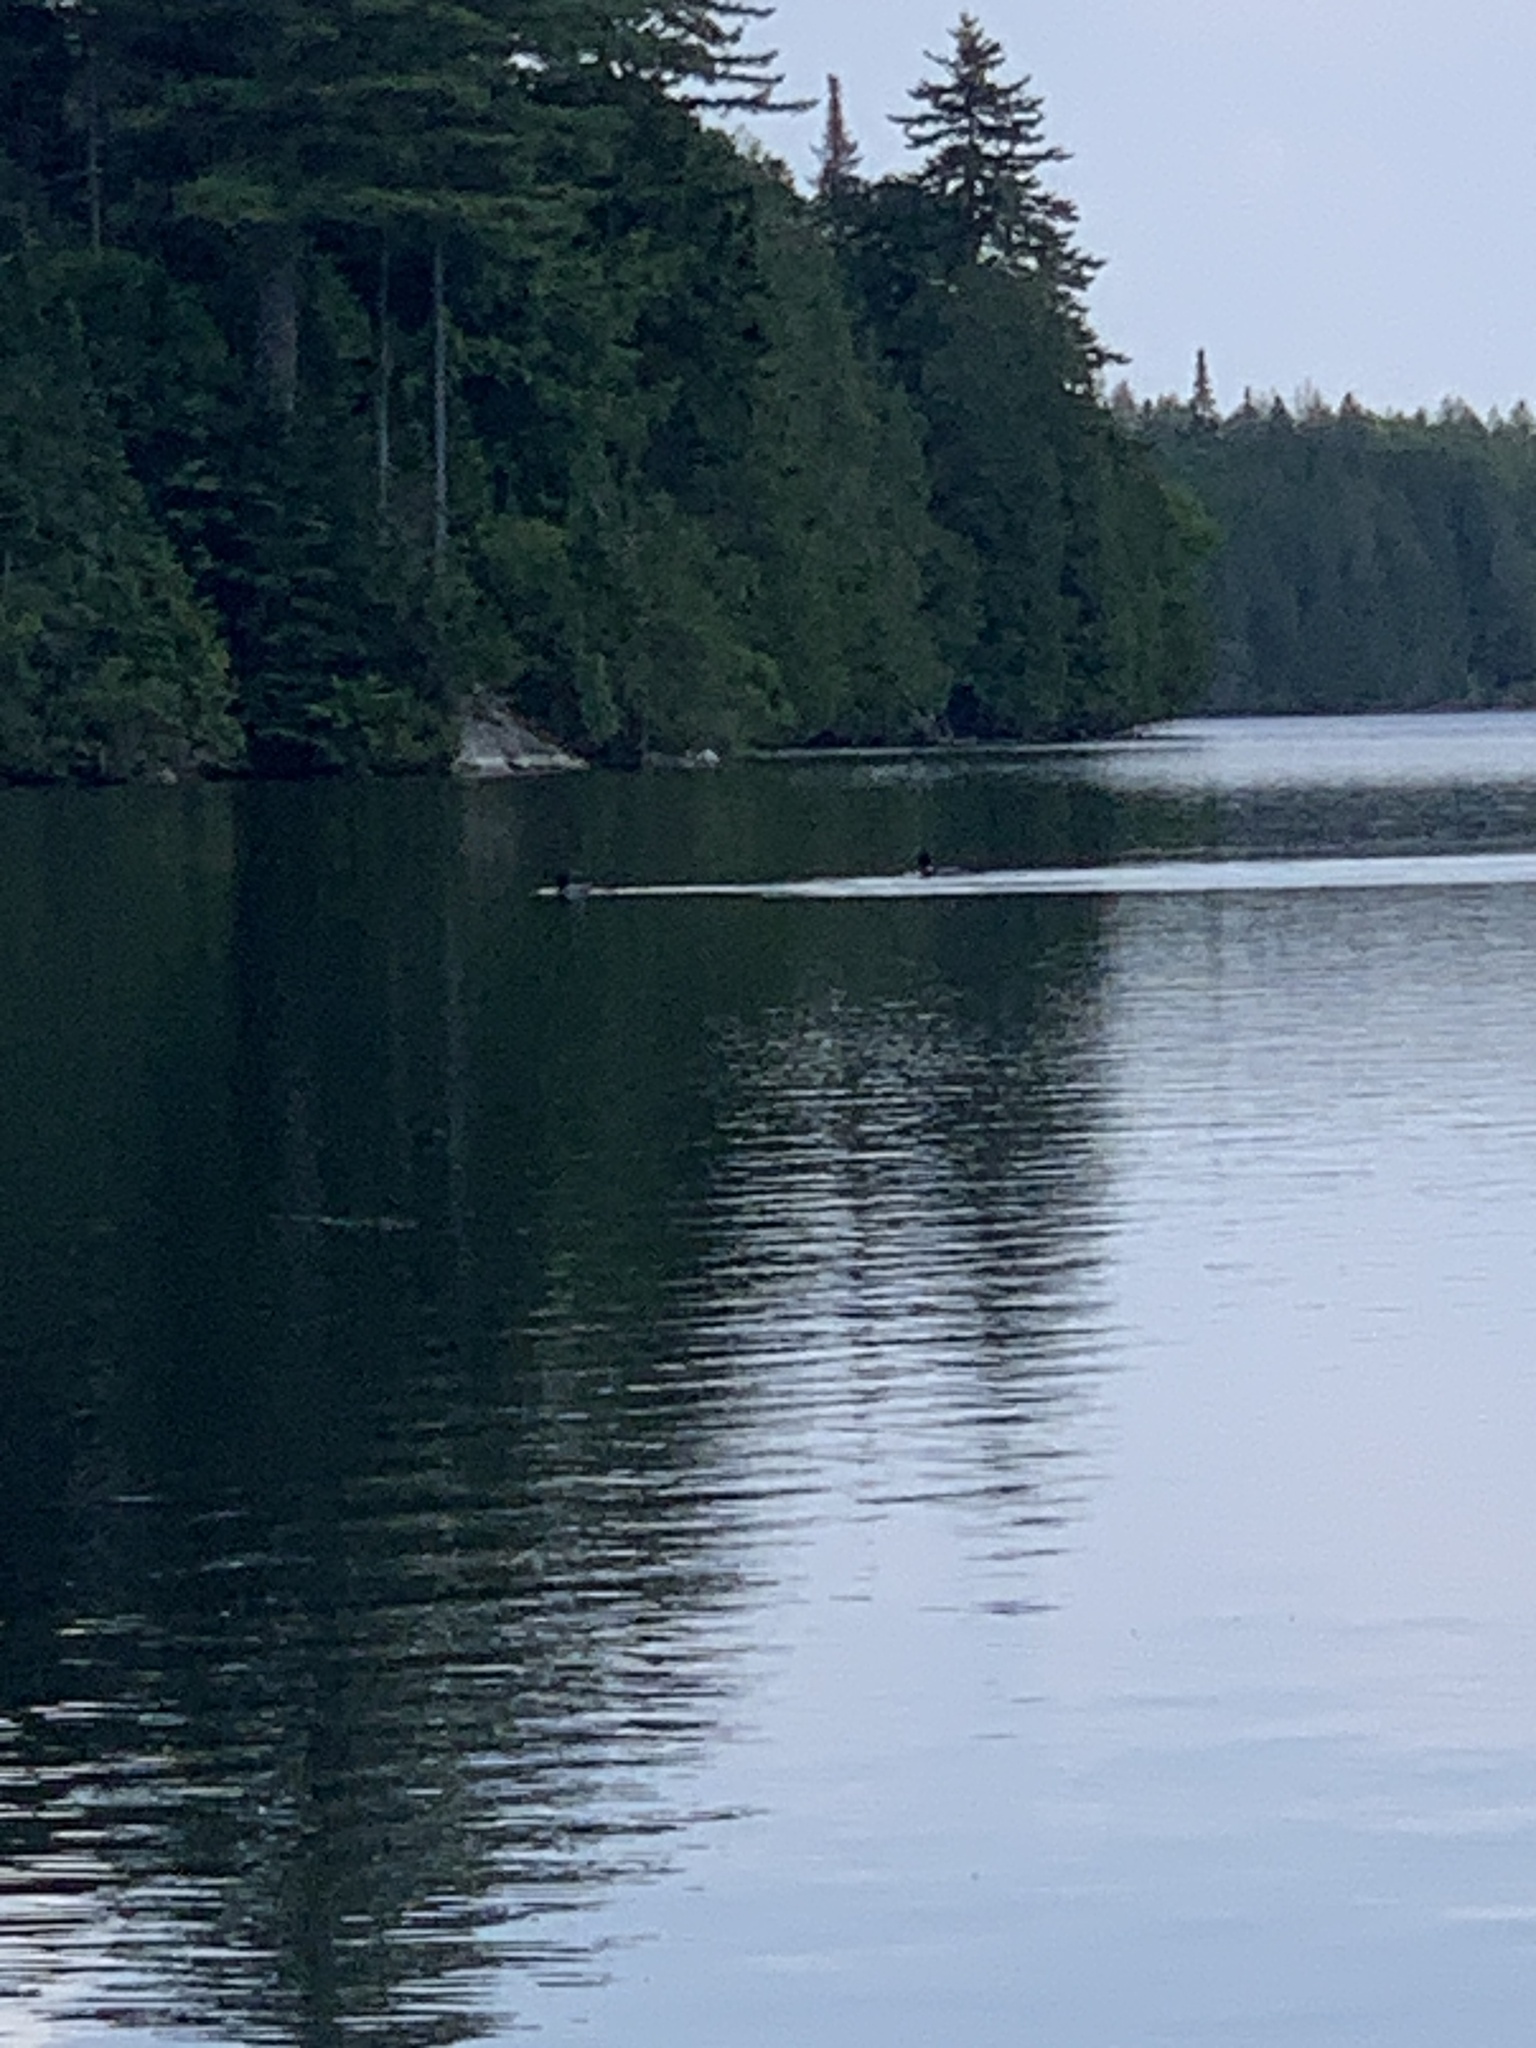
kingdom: Animalia
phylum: Chordata
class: Aves
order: Gaviiformes
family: Gaviidae
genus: Gavia
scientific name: Gavia immer
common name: Common loon
